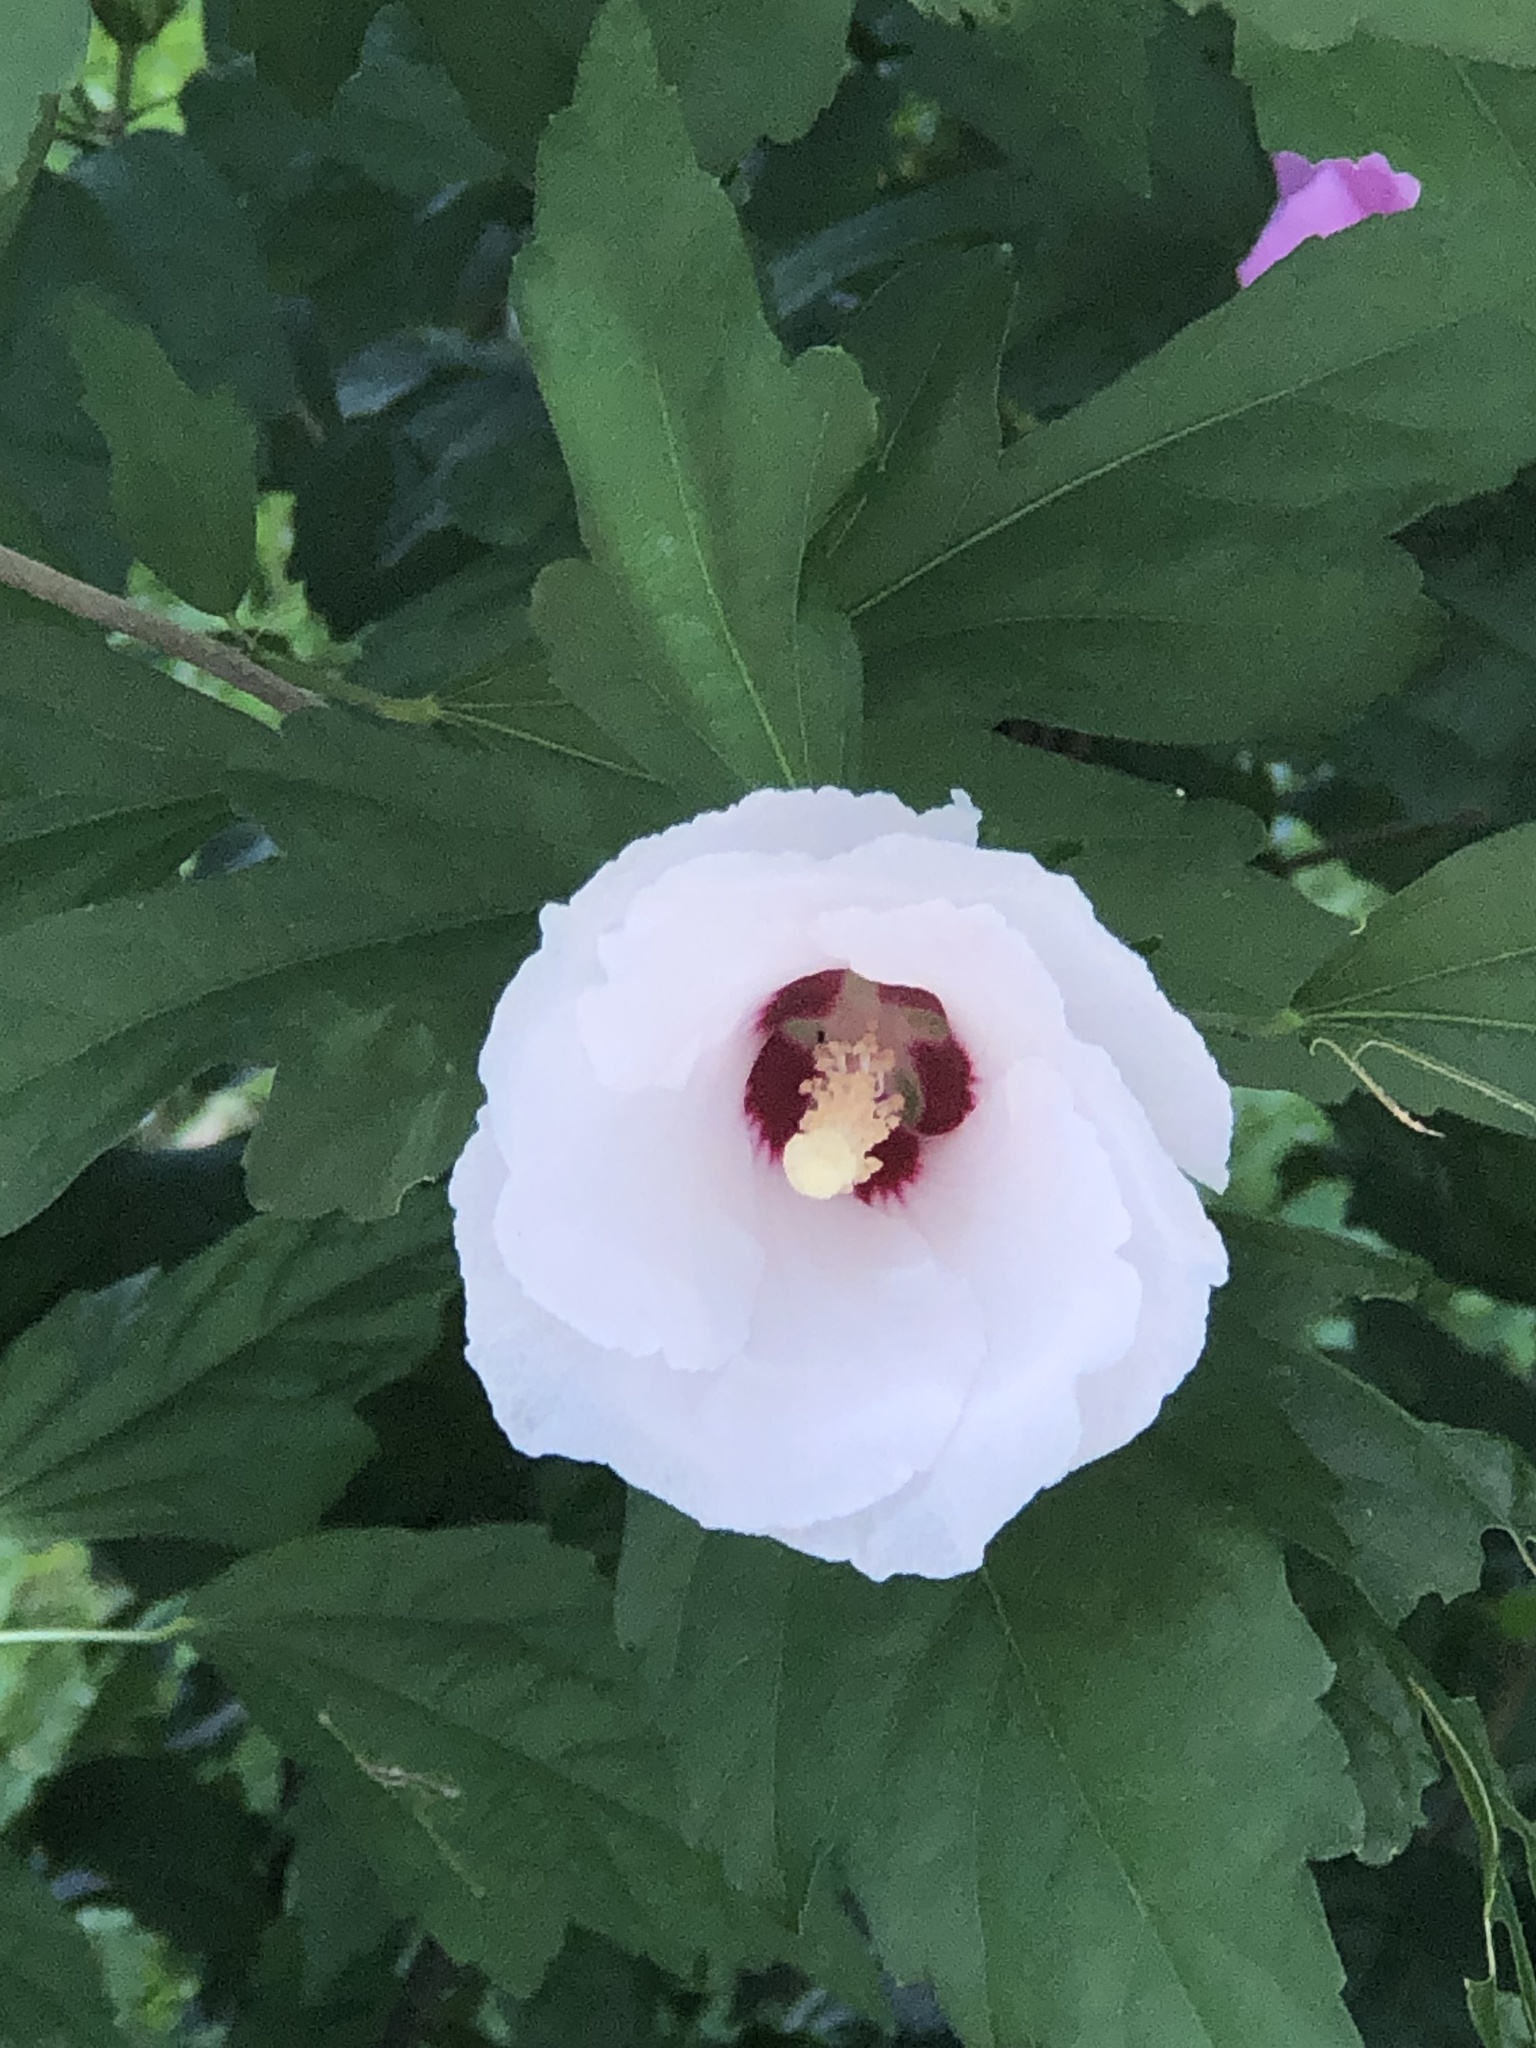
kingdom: Plantae
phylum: Tracheophyta
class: Magnoliopsida
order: Malvales
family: Malvaceae
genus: Hibiscus
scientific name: Hibiscus syriacus
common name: Syrian ketmia
